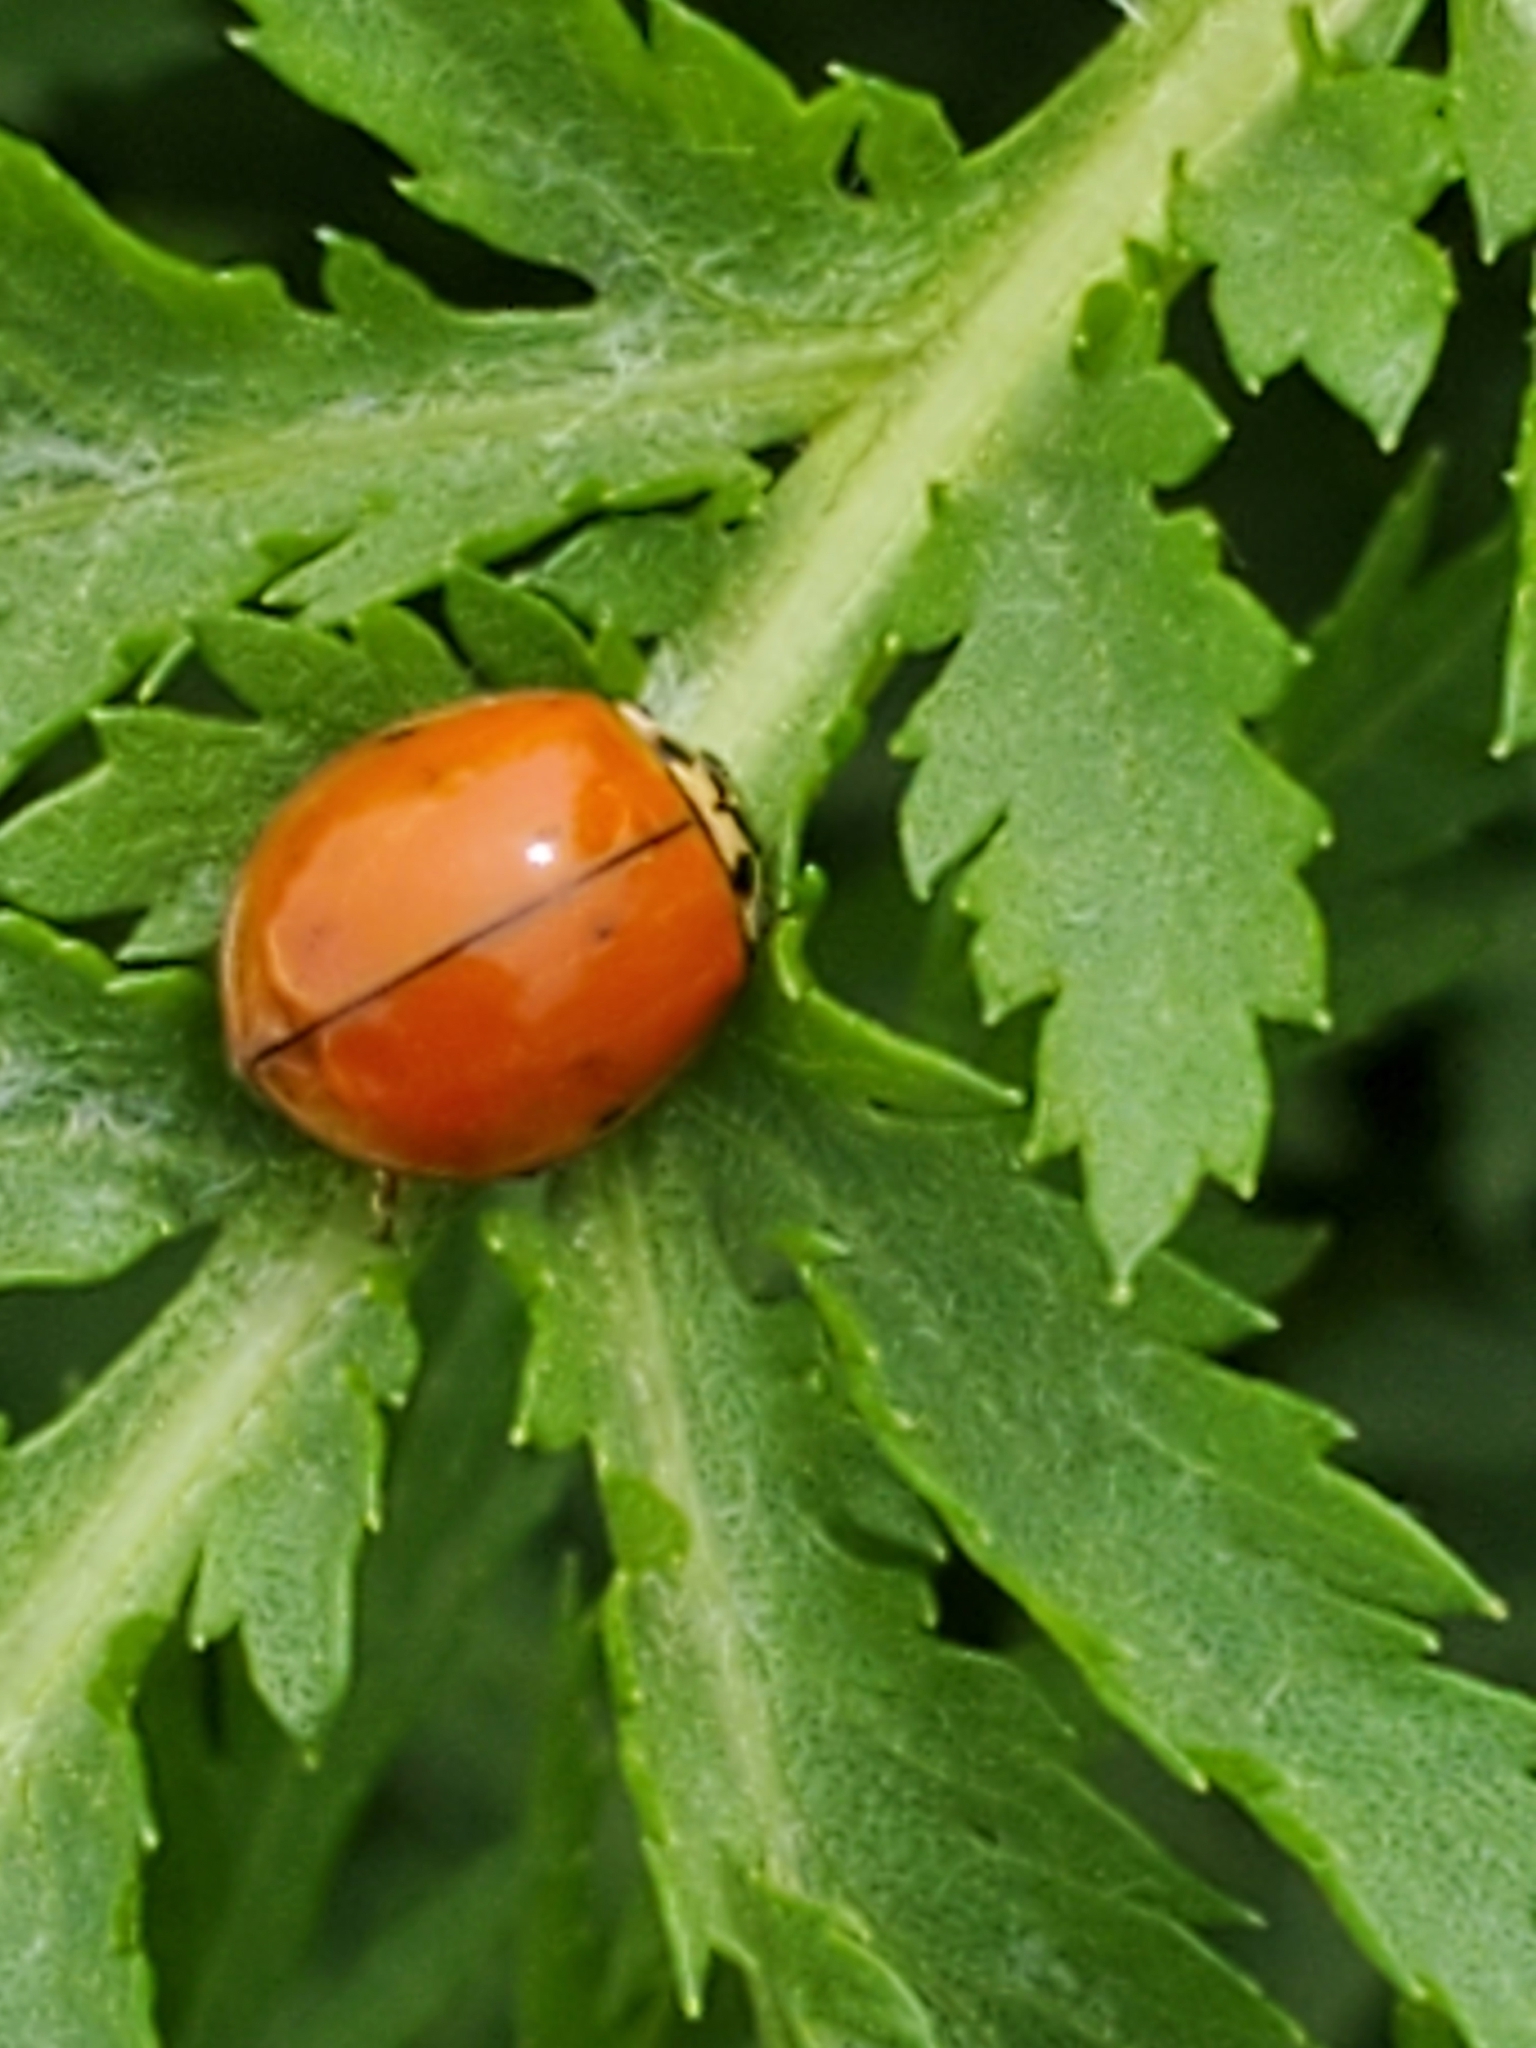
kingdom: Animalia
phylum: Arthropoda
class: Insecta
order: Coleoptera
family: Coccinellidae
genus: Harmonia
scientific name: Harmonia axyridis
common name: Harlequin ladybird
